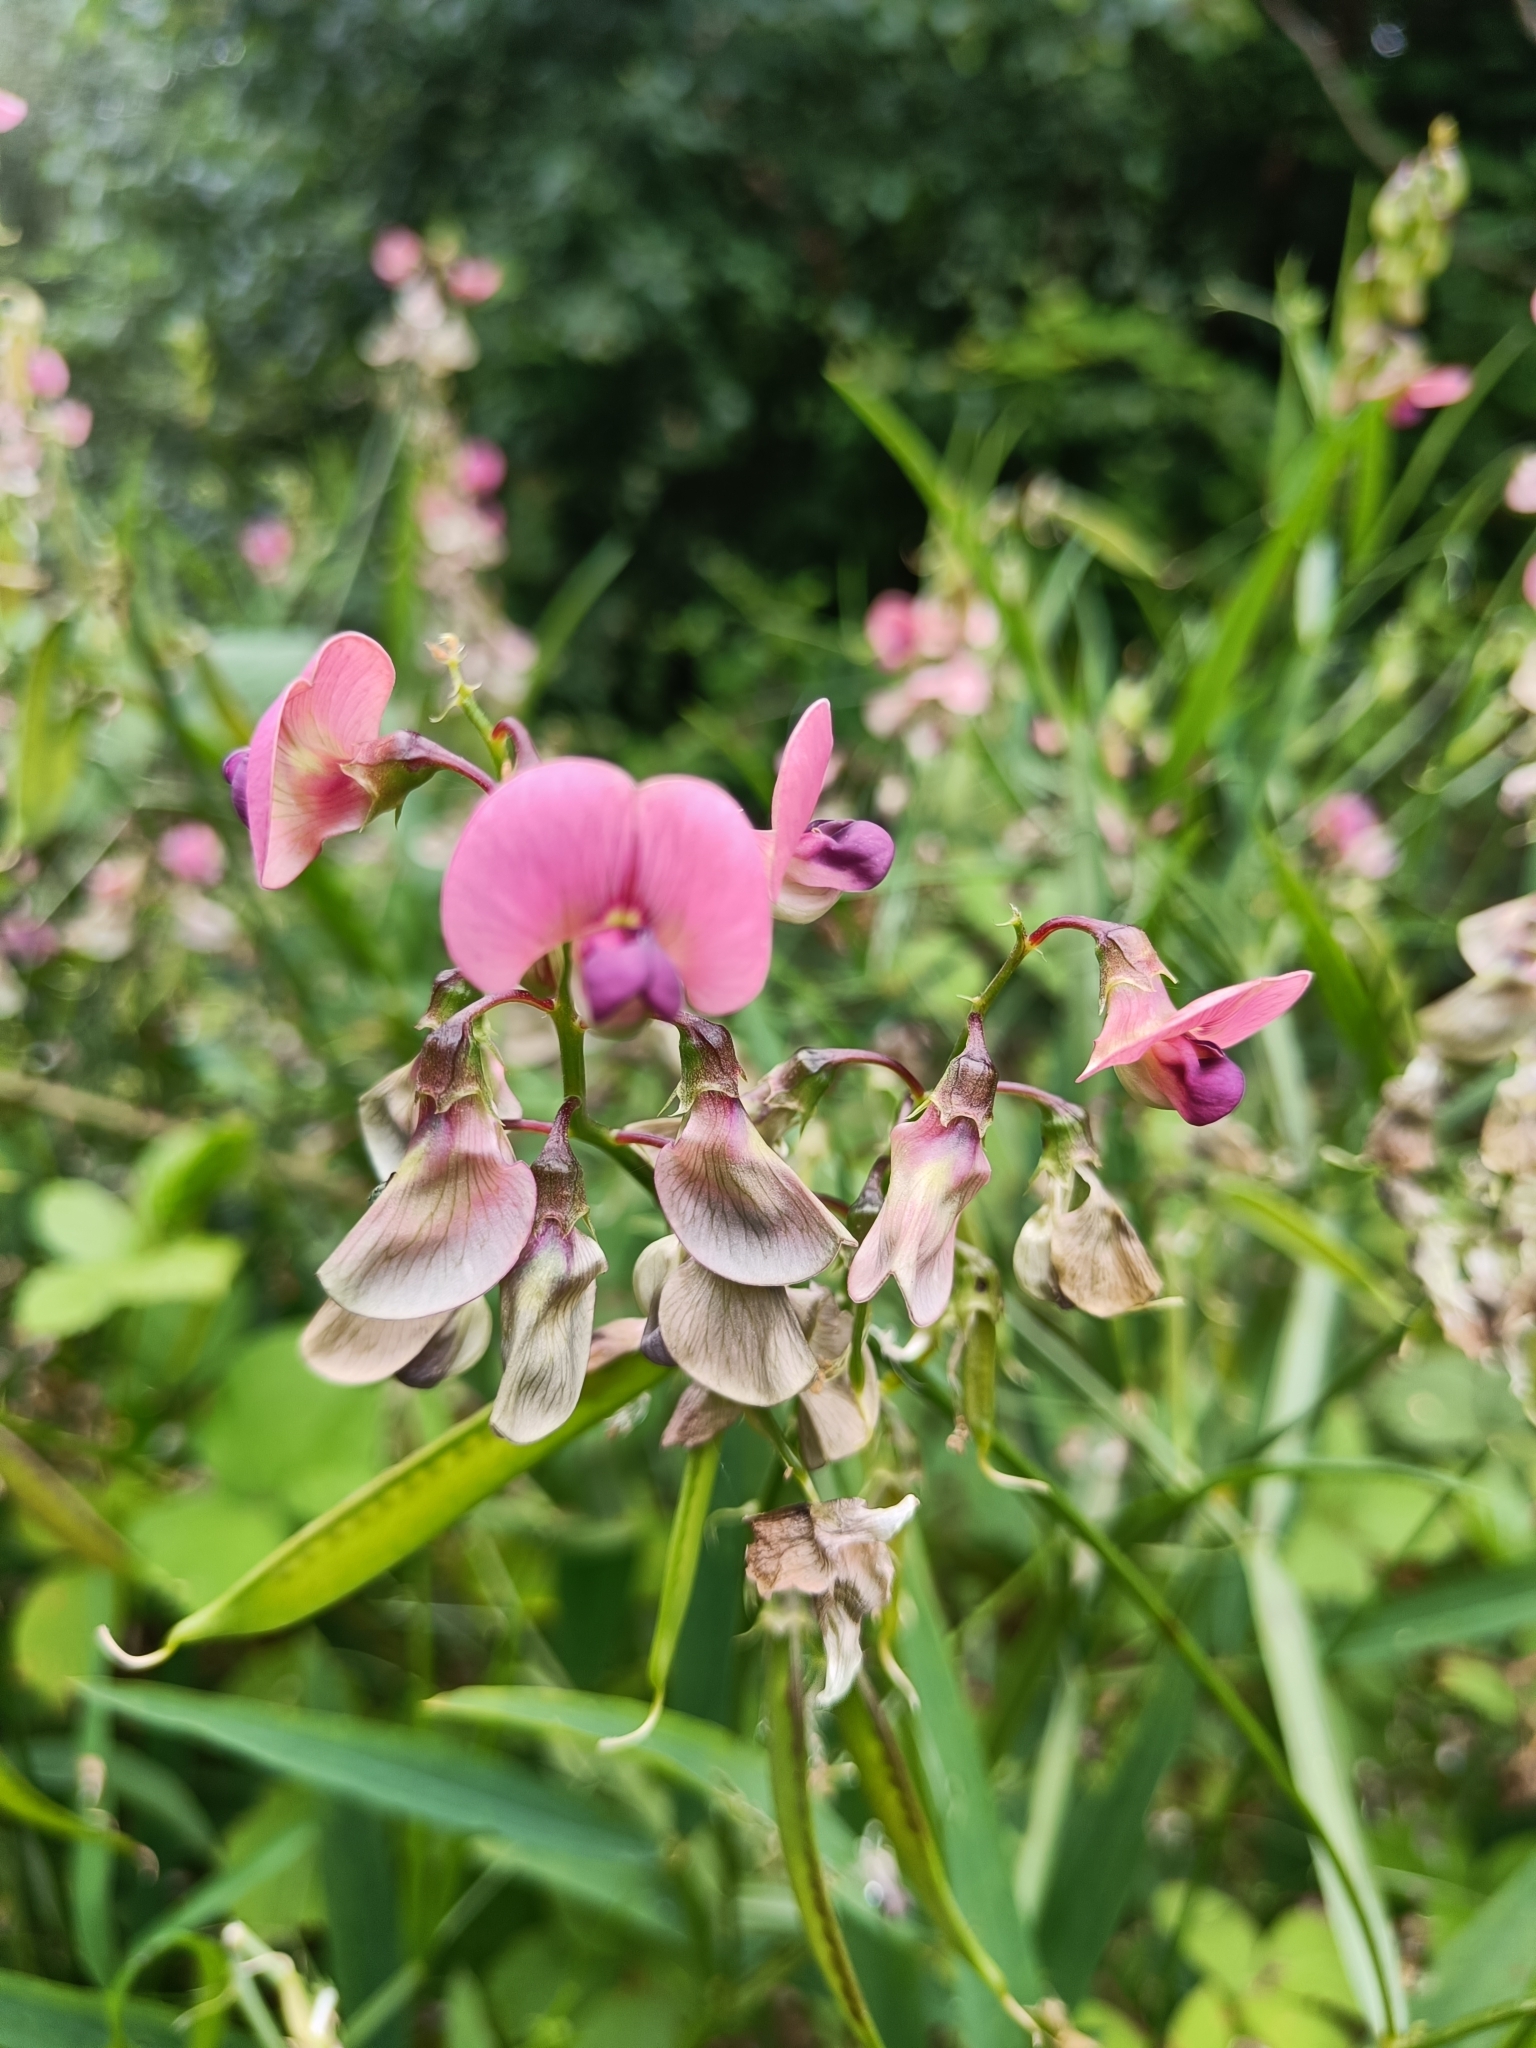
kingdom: Plantae
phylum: Tracheophyta
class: Magnoliopsida
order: Fabales
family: Fabaceae
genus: Lathyrus
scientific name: Lathyrus sylvestris
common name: Flat pea
